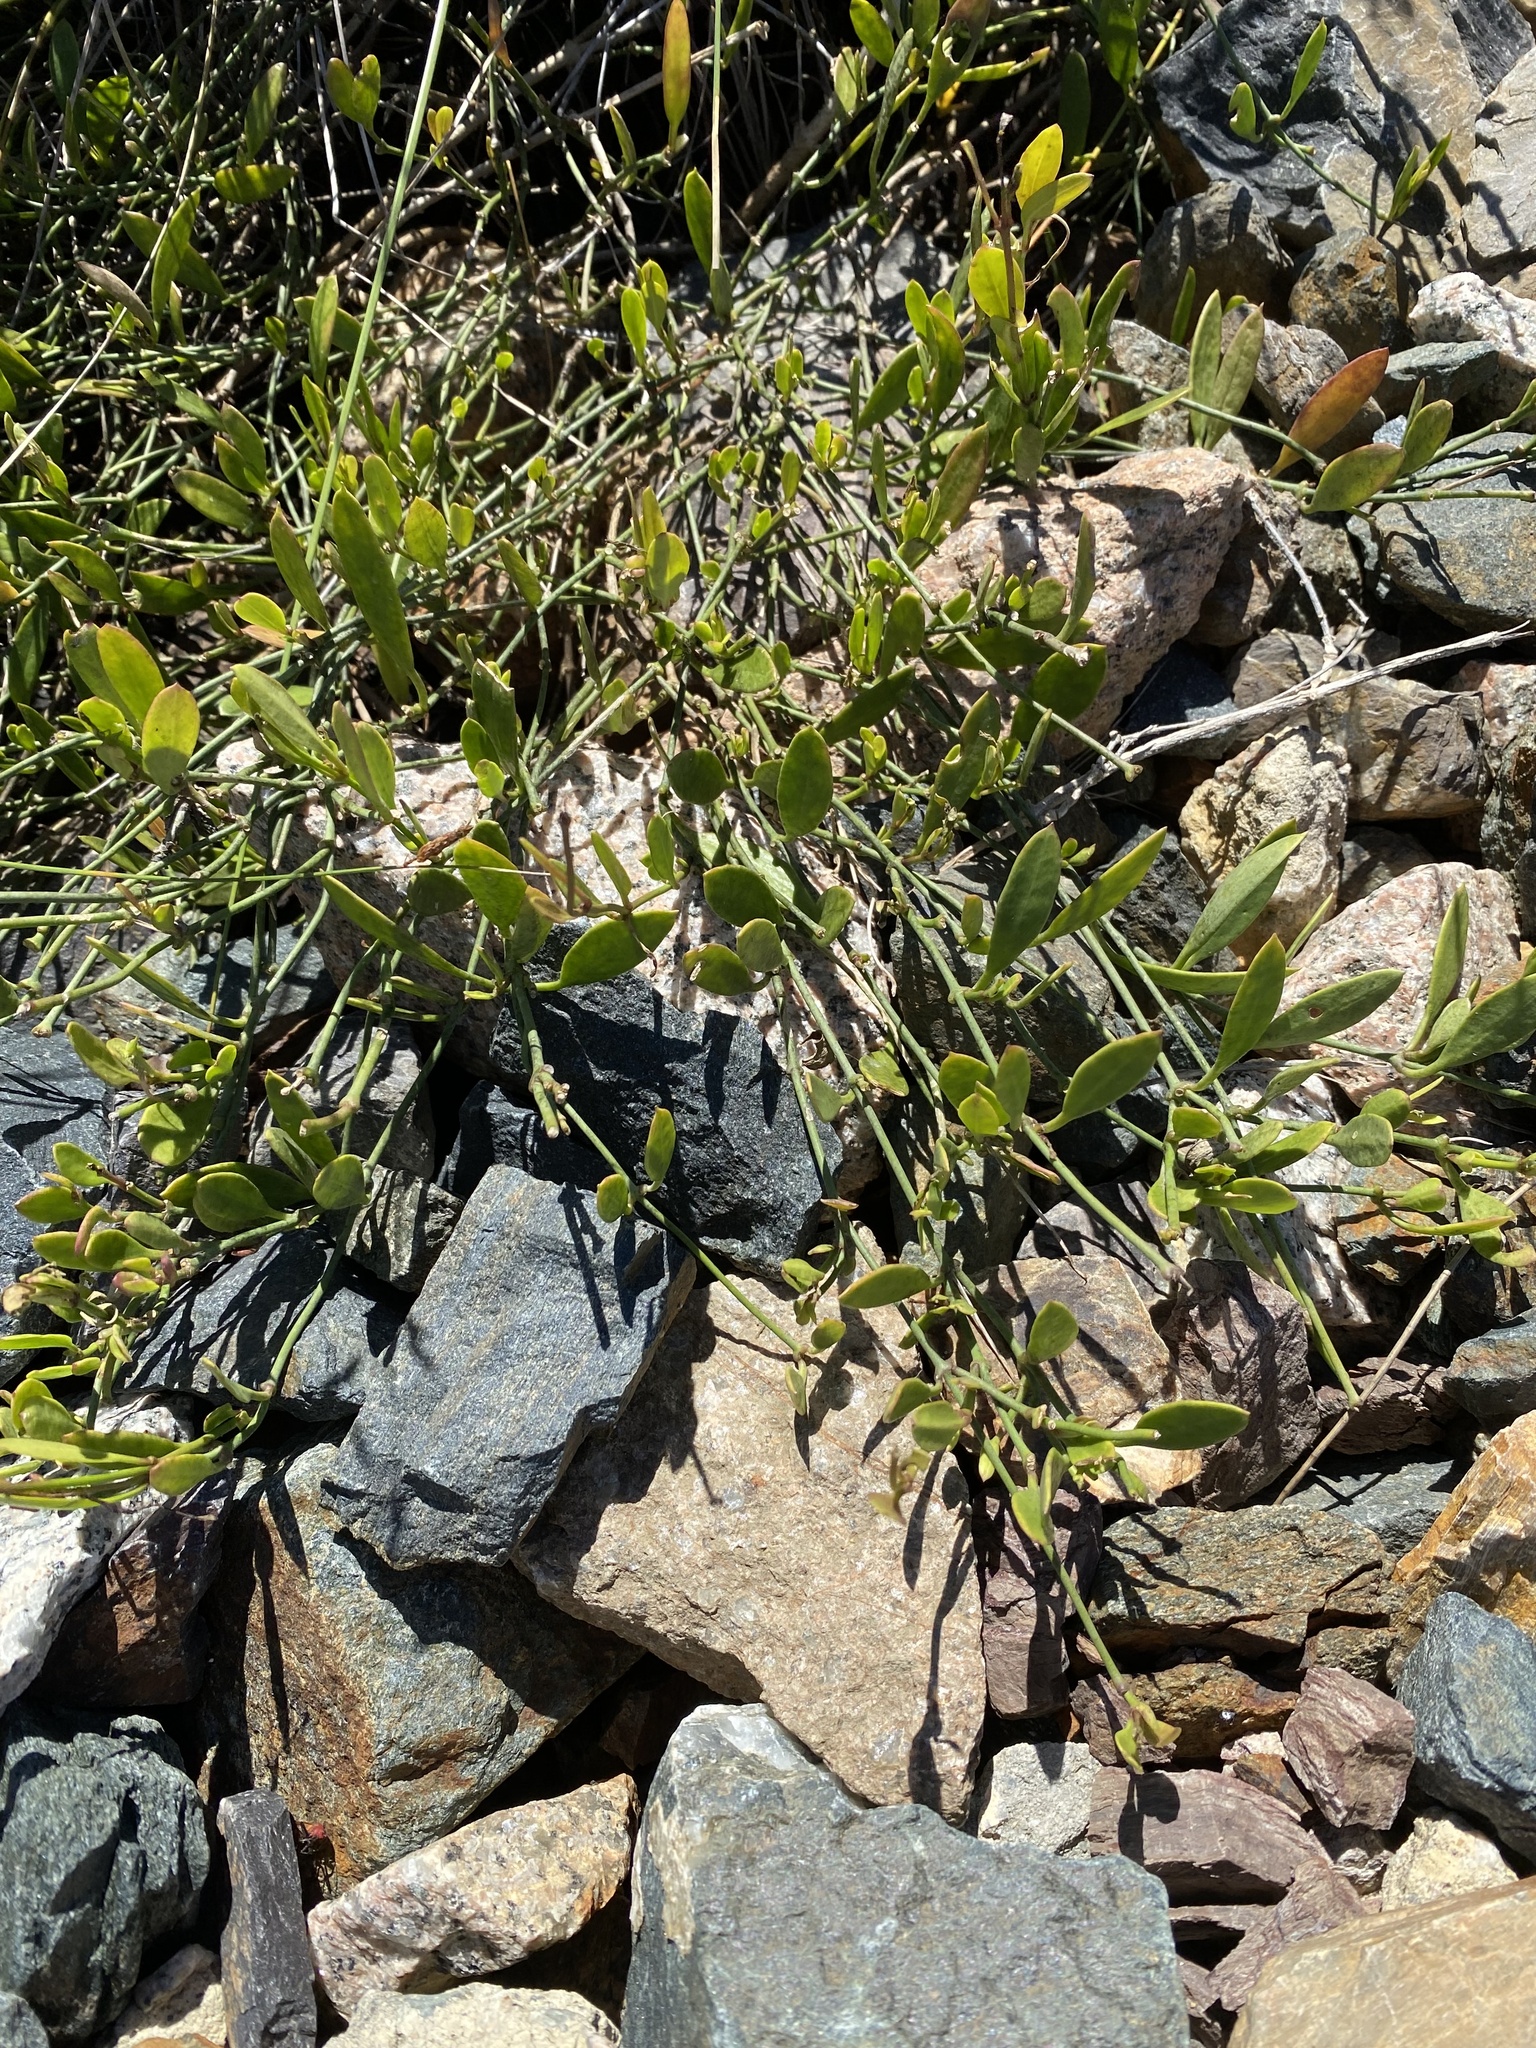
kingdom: Plantae
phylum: Tracheophyta
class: Magnoliopsida
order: Gentianales
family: Apocynaceae
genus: Vincetoxicum
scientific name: Vincetoxicum carnosum
